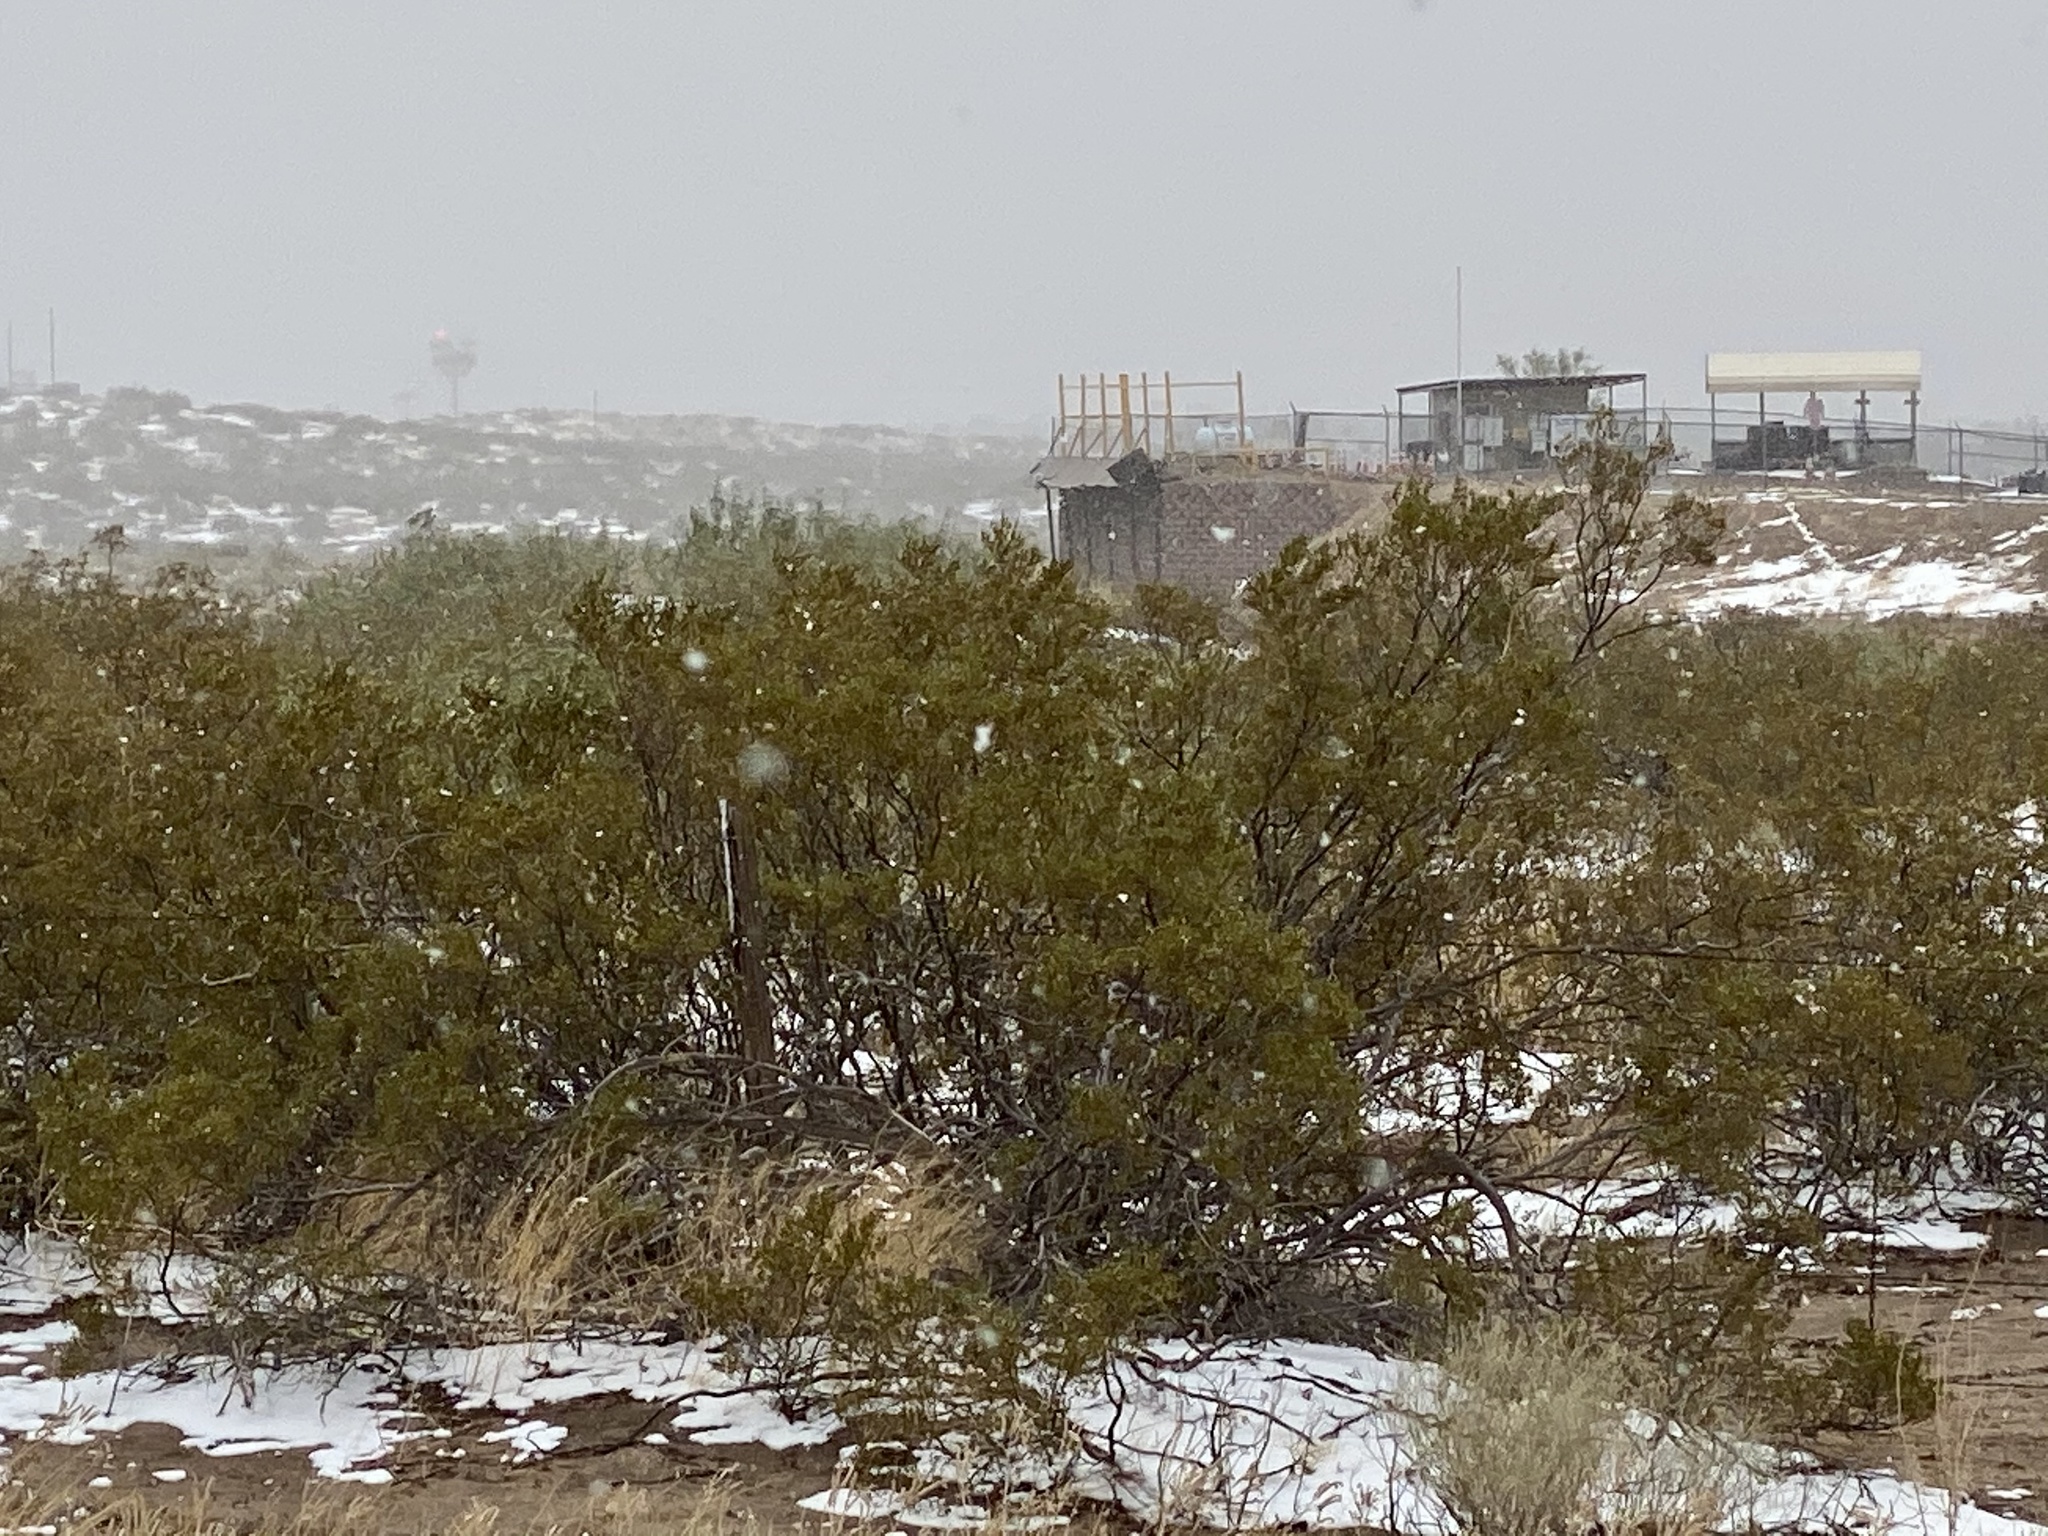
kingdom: Plantae
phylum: Tracheophyta
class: Magnoliopsida
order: Zygophyllales
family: Zygophyllaceae
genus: Larrea
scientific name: Larrea tridentata
